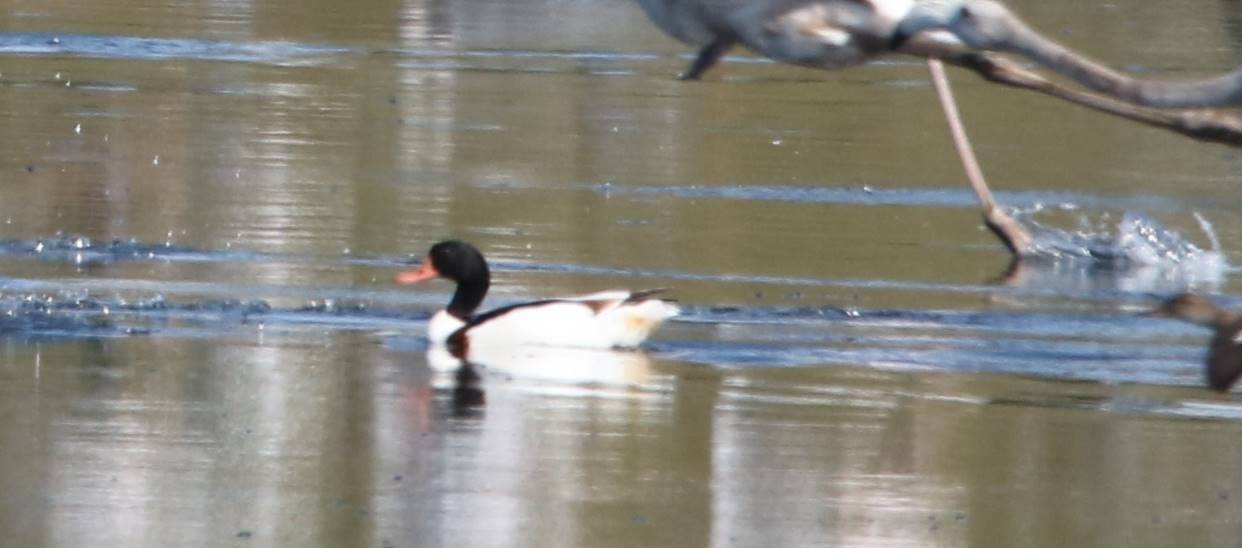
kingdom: Animalia
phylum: Chordata
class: Aves
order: Anseriformes
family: Anatidae
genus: Tadorna
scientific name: Tadorna tadorna
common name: Common shelduck
